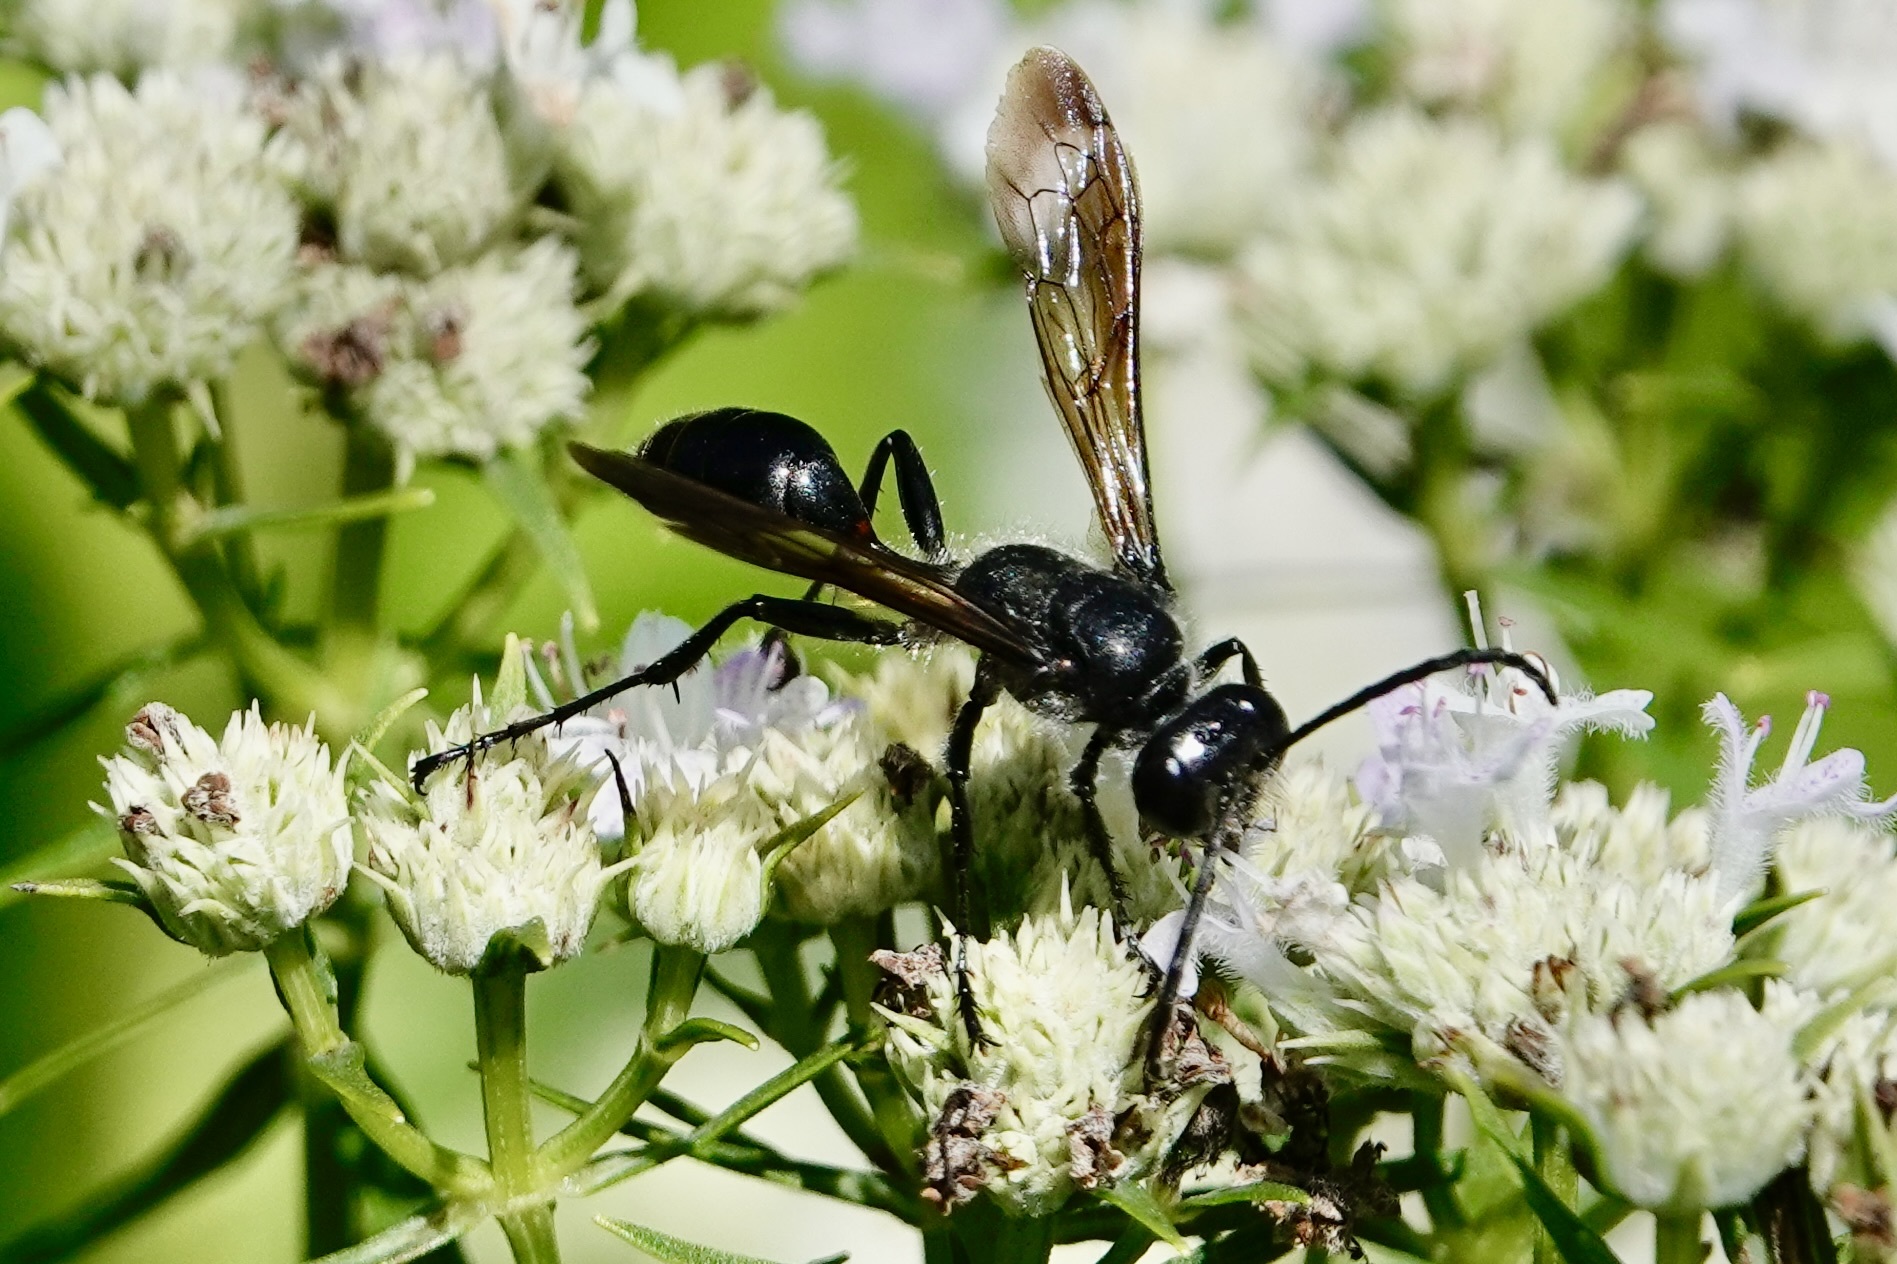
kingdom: Animalia
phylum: Arthropoda
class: Insecta
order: Hymenoptera
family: Sphecidae
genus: Isodontia
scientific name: Isodontia mexicana
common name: Mud dauber
